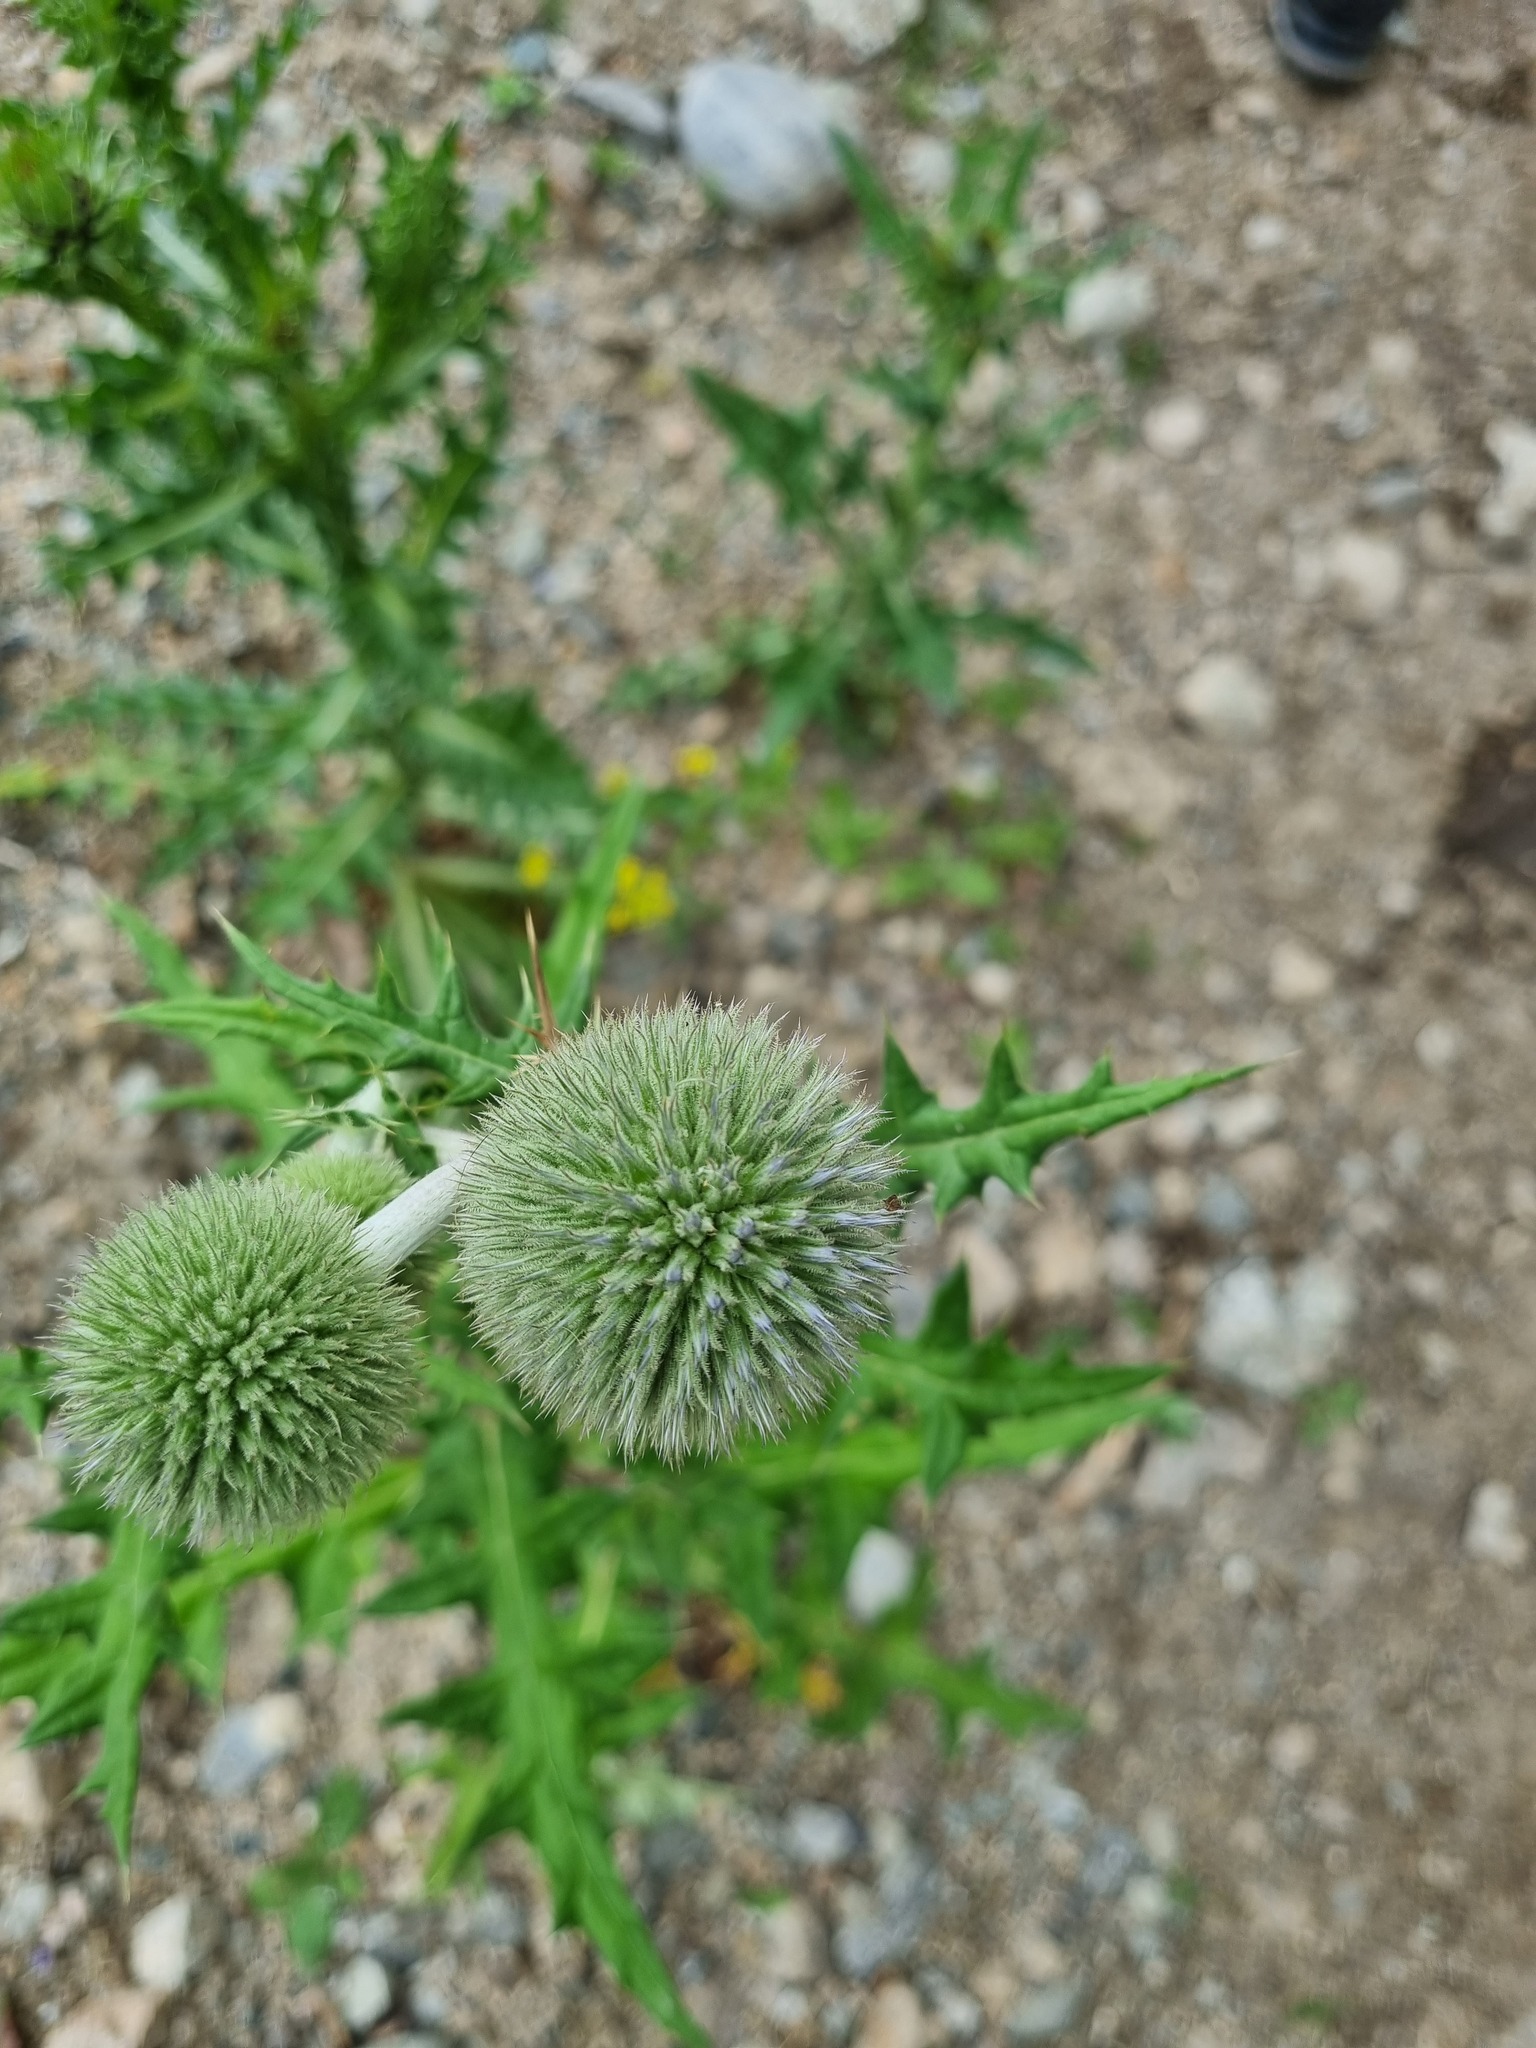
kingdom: Plantae
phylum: Tracheophyta
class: Magnoliopsida
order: Asterales
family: Asteraceae
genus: Echinops
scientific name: Echinops sphaerocephalus
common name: Glandular globe-thistle
